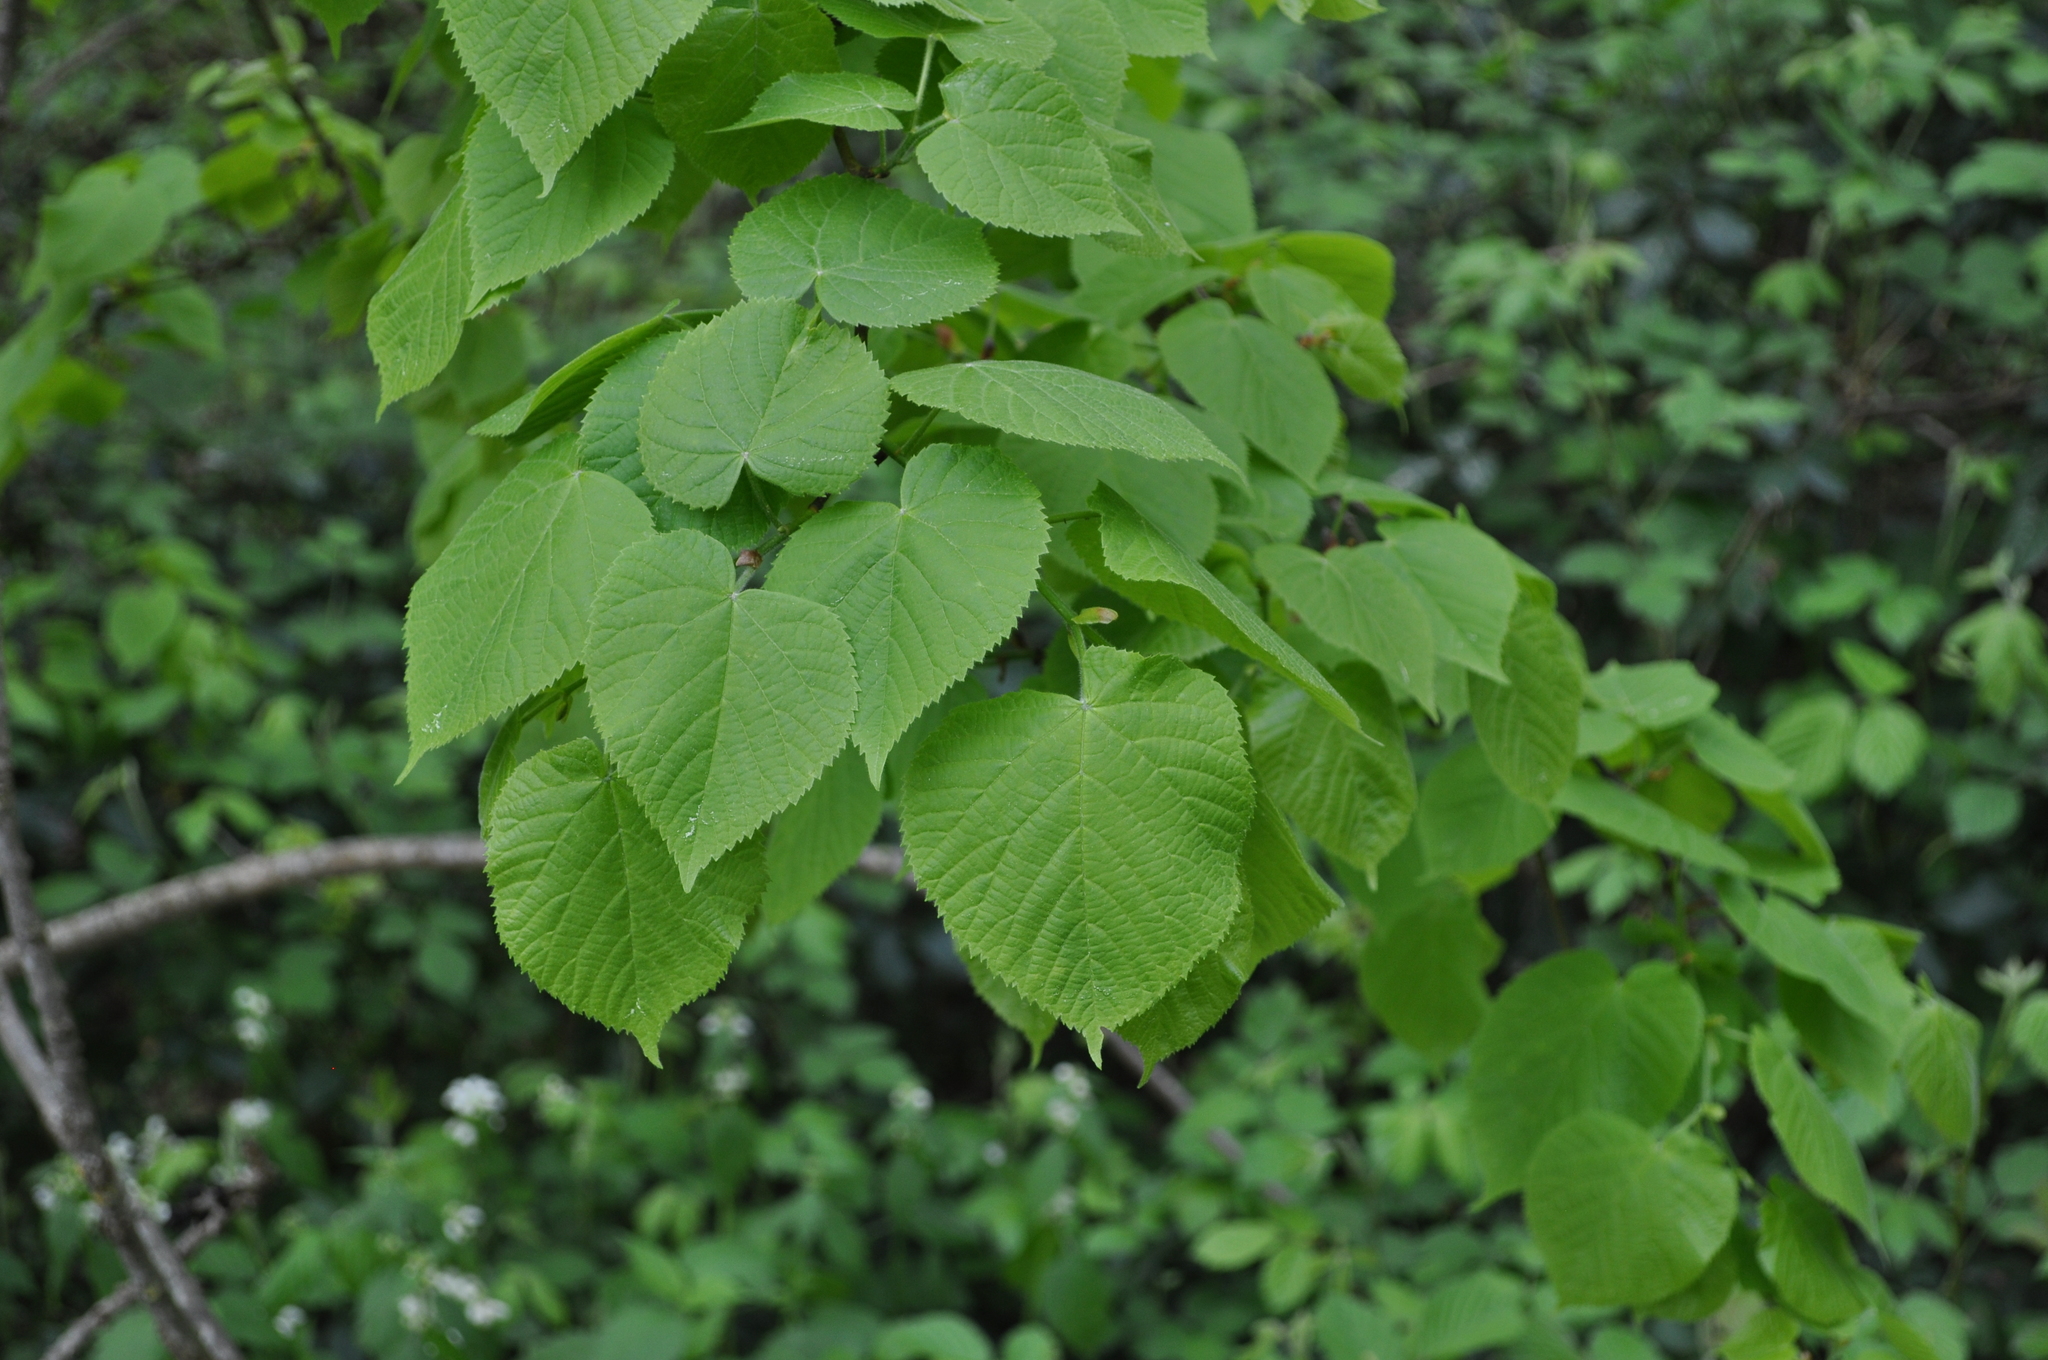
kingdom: Plantae
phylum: Tracheophyta
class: Magnoliopsida
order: Malvales
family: Malvaceae
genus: Tilia
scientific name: Tilia europaea
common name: European linden
